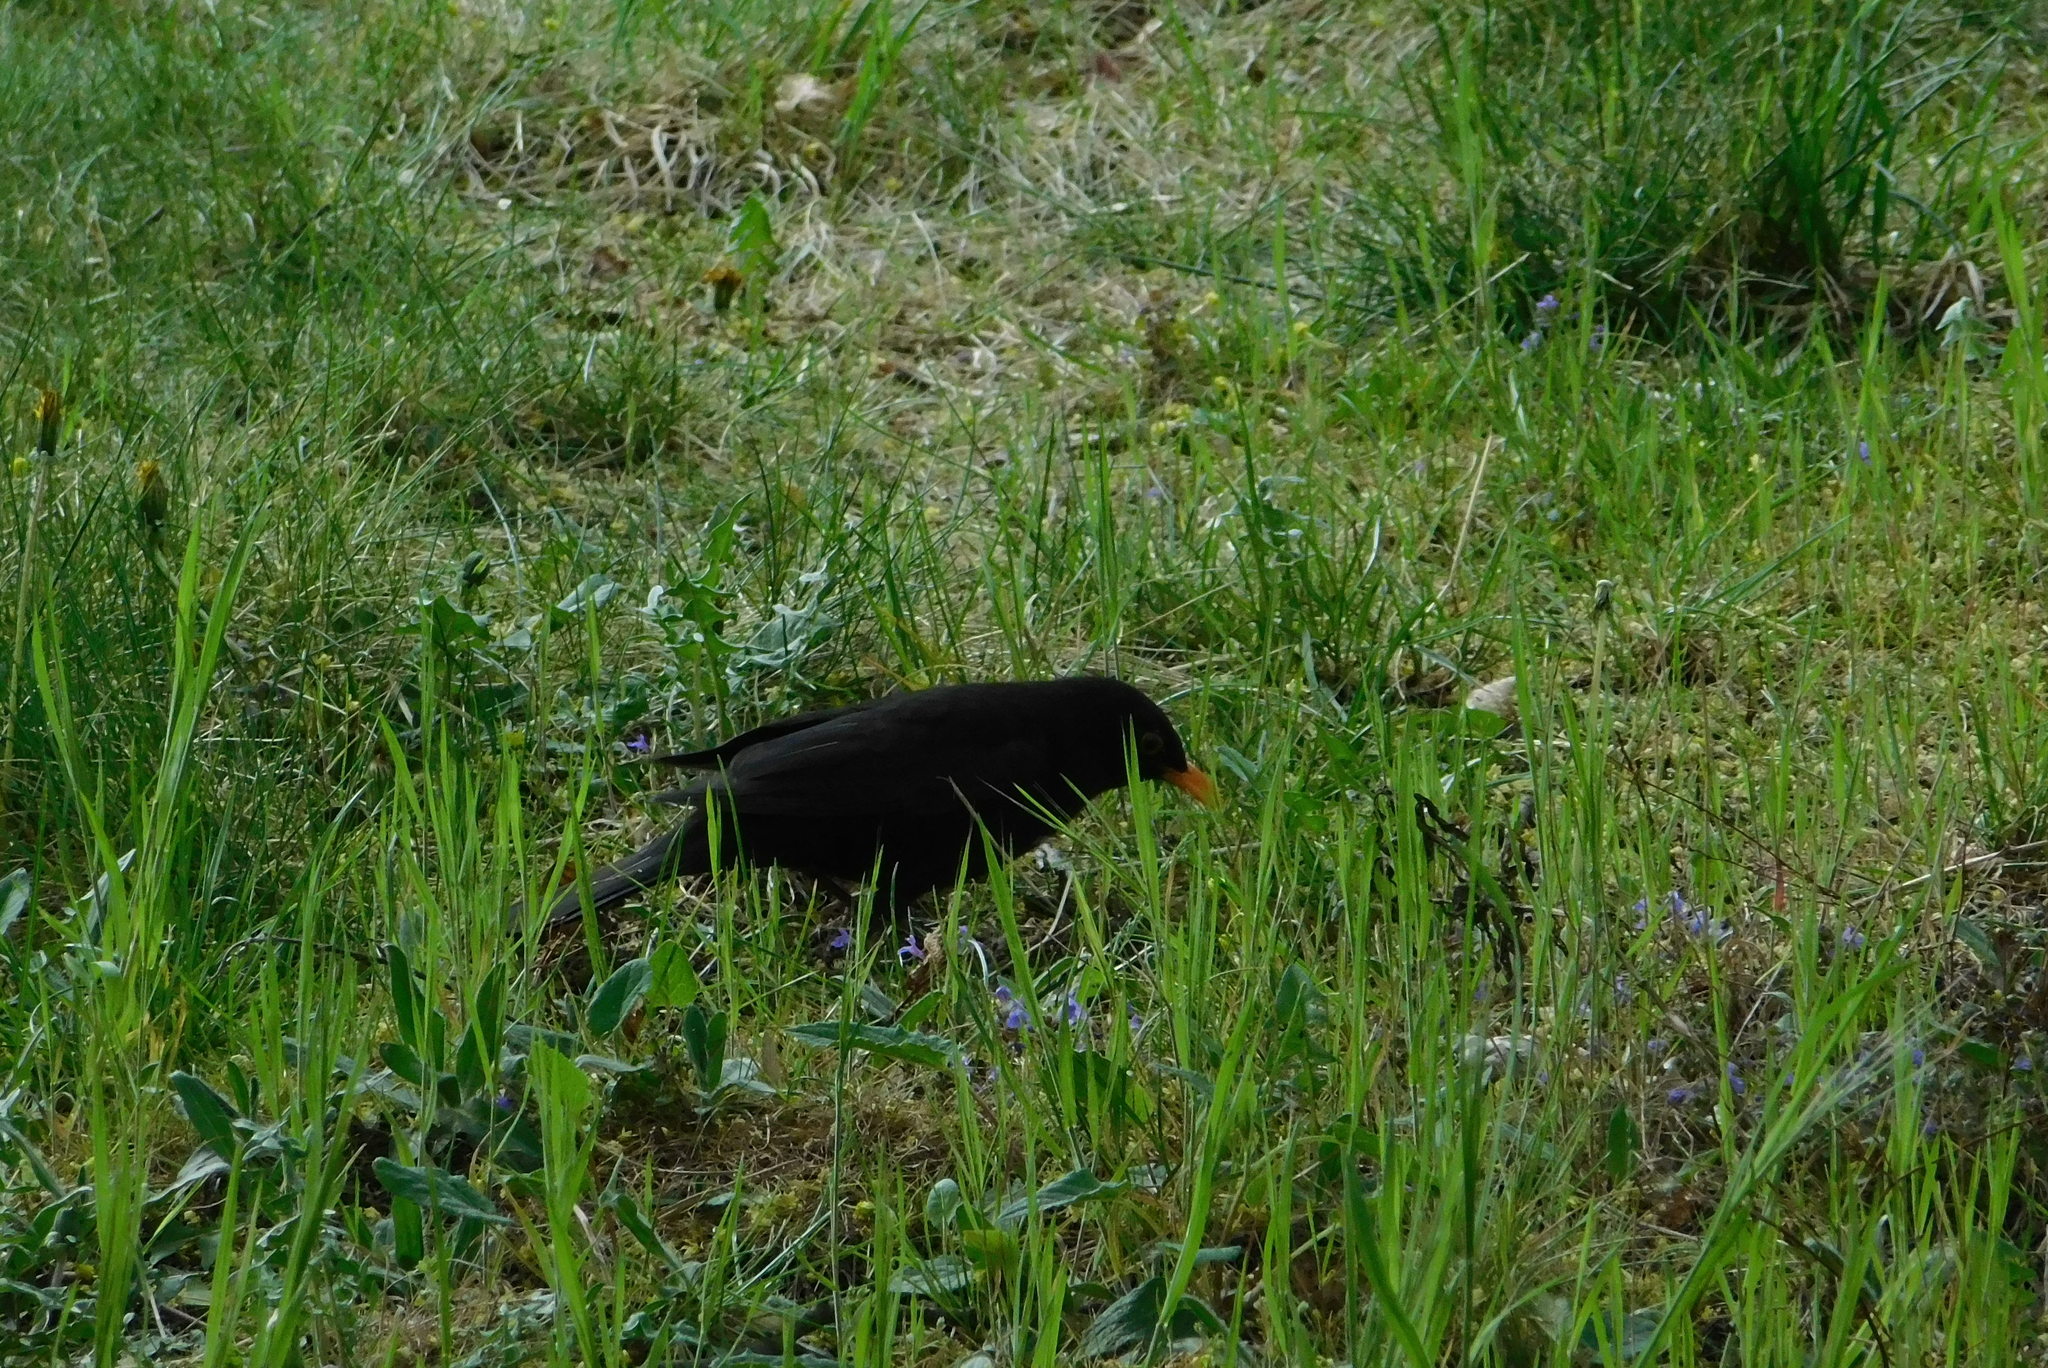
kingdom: Animalia
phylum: Chordata
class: Aves
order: Passeriformes
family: Turdidae
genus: Turdus
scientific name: Turdus merula
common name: Common blackbird
